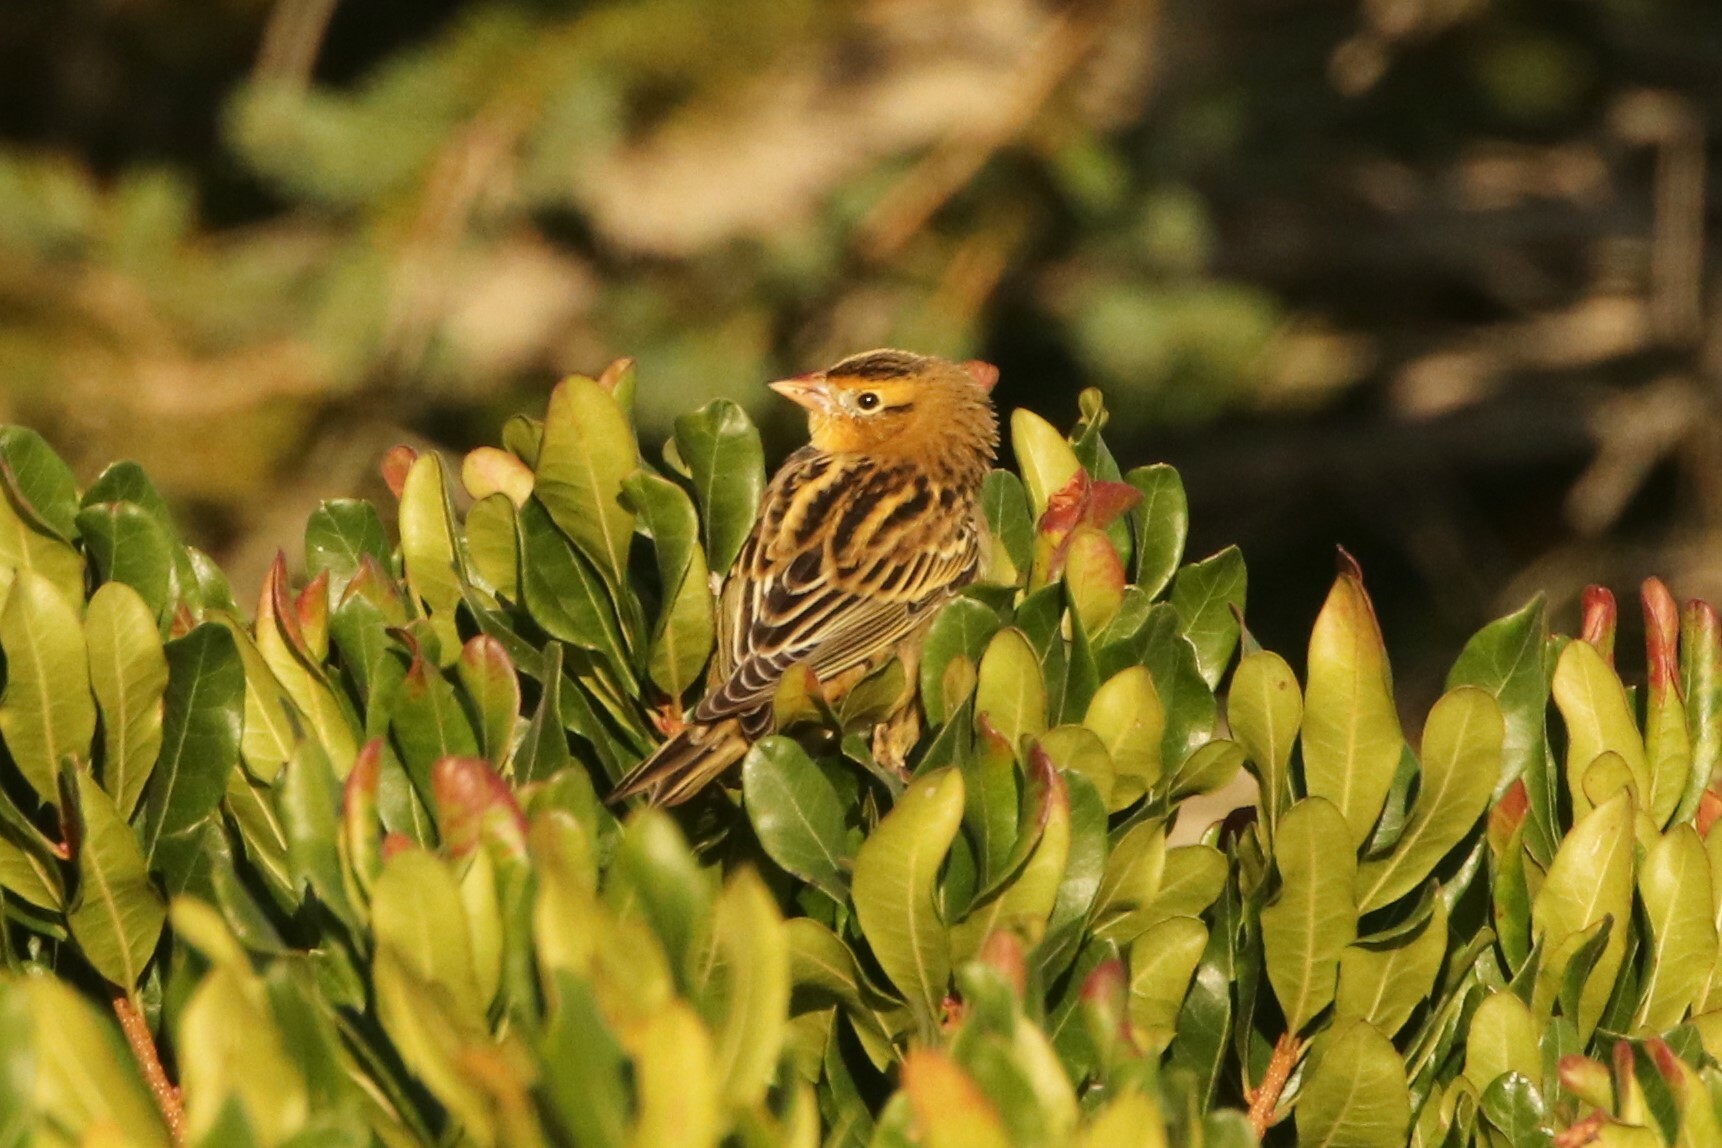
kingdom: Animalia
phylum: Chordata
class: Aves
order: Passeriformes
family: Icteridae
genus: Dolichonyx
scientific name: Dolichonyx oryzivorus
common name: Bobolink
